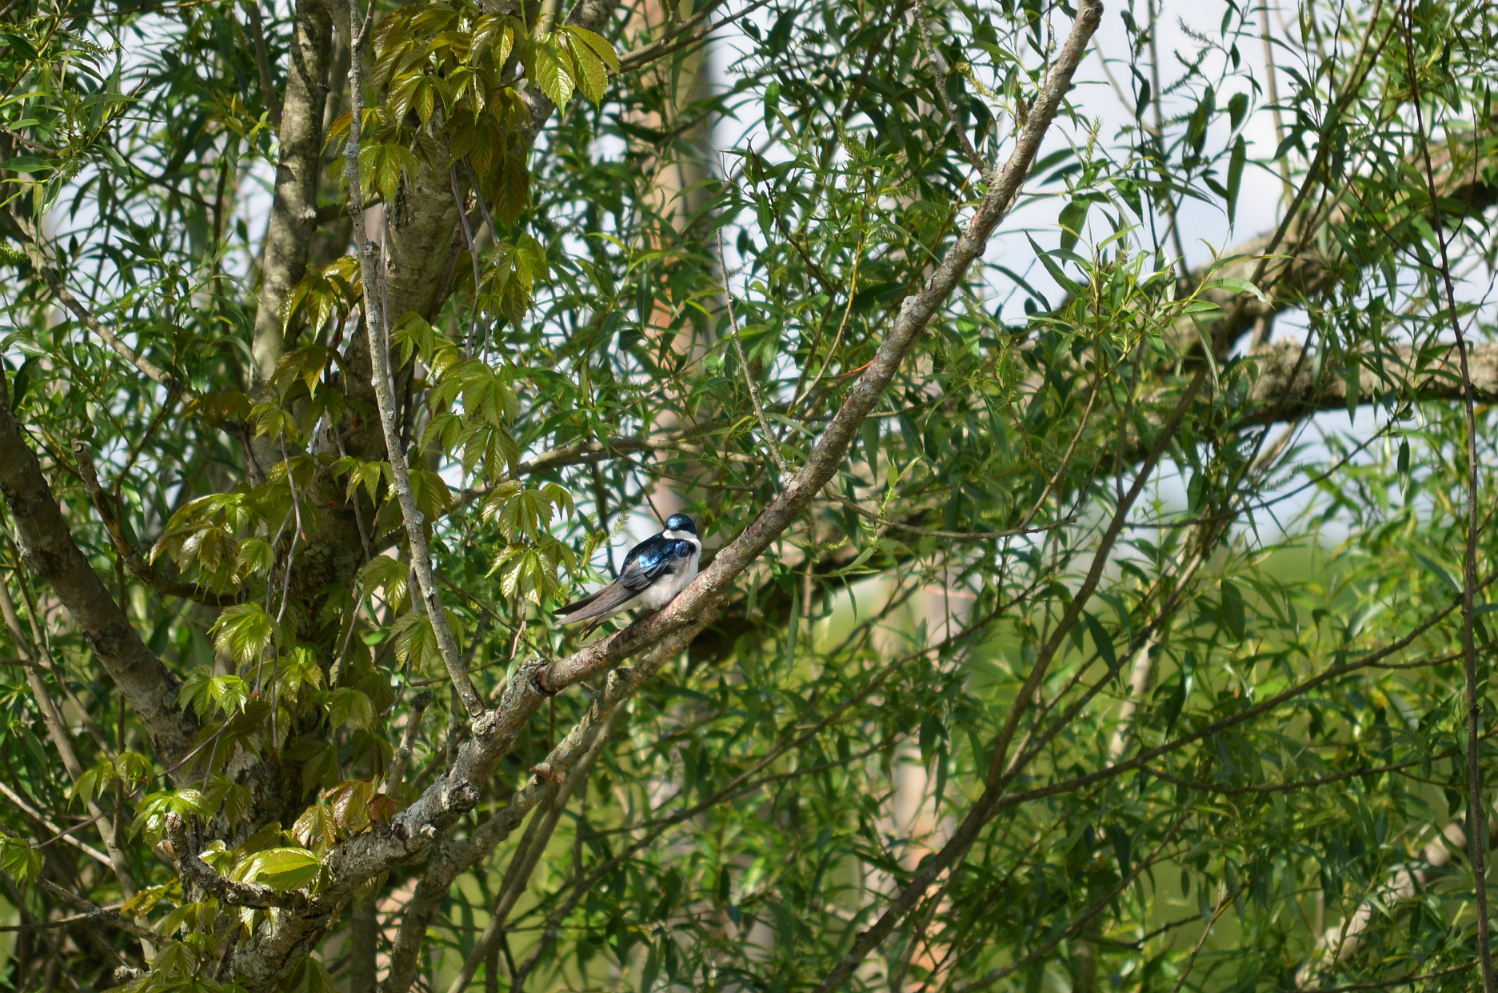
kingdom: Animalia
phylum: Chordata
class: Aves
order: Passeriformes
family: Hirundinidae
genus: Tachycineta
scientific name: Tachycineta bicolor
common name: Tree swallow
